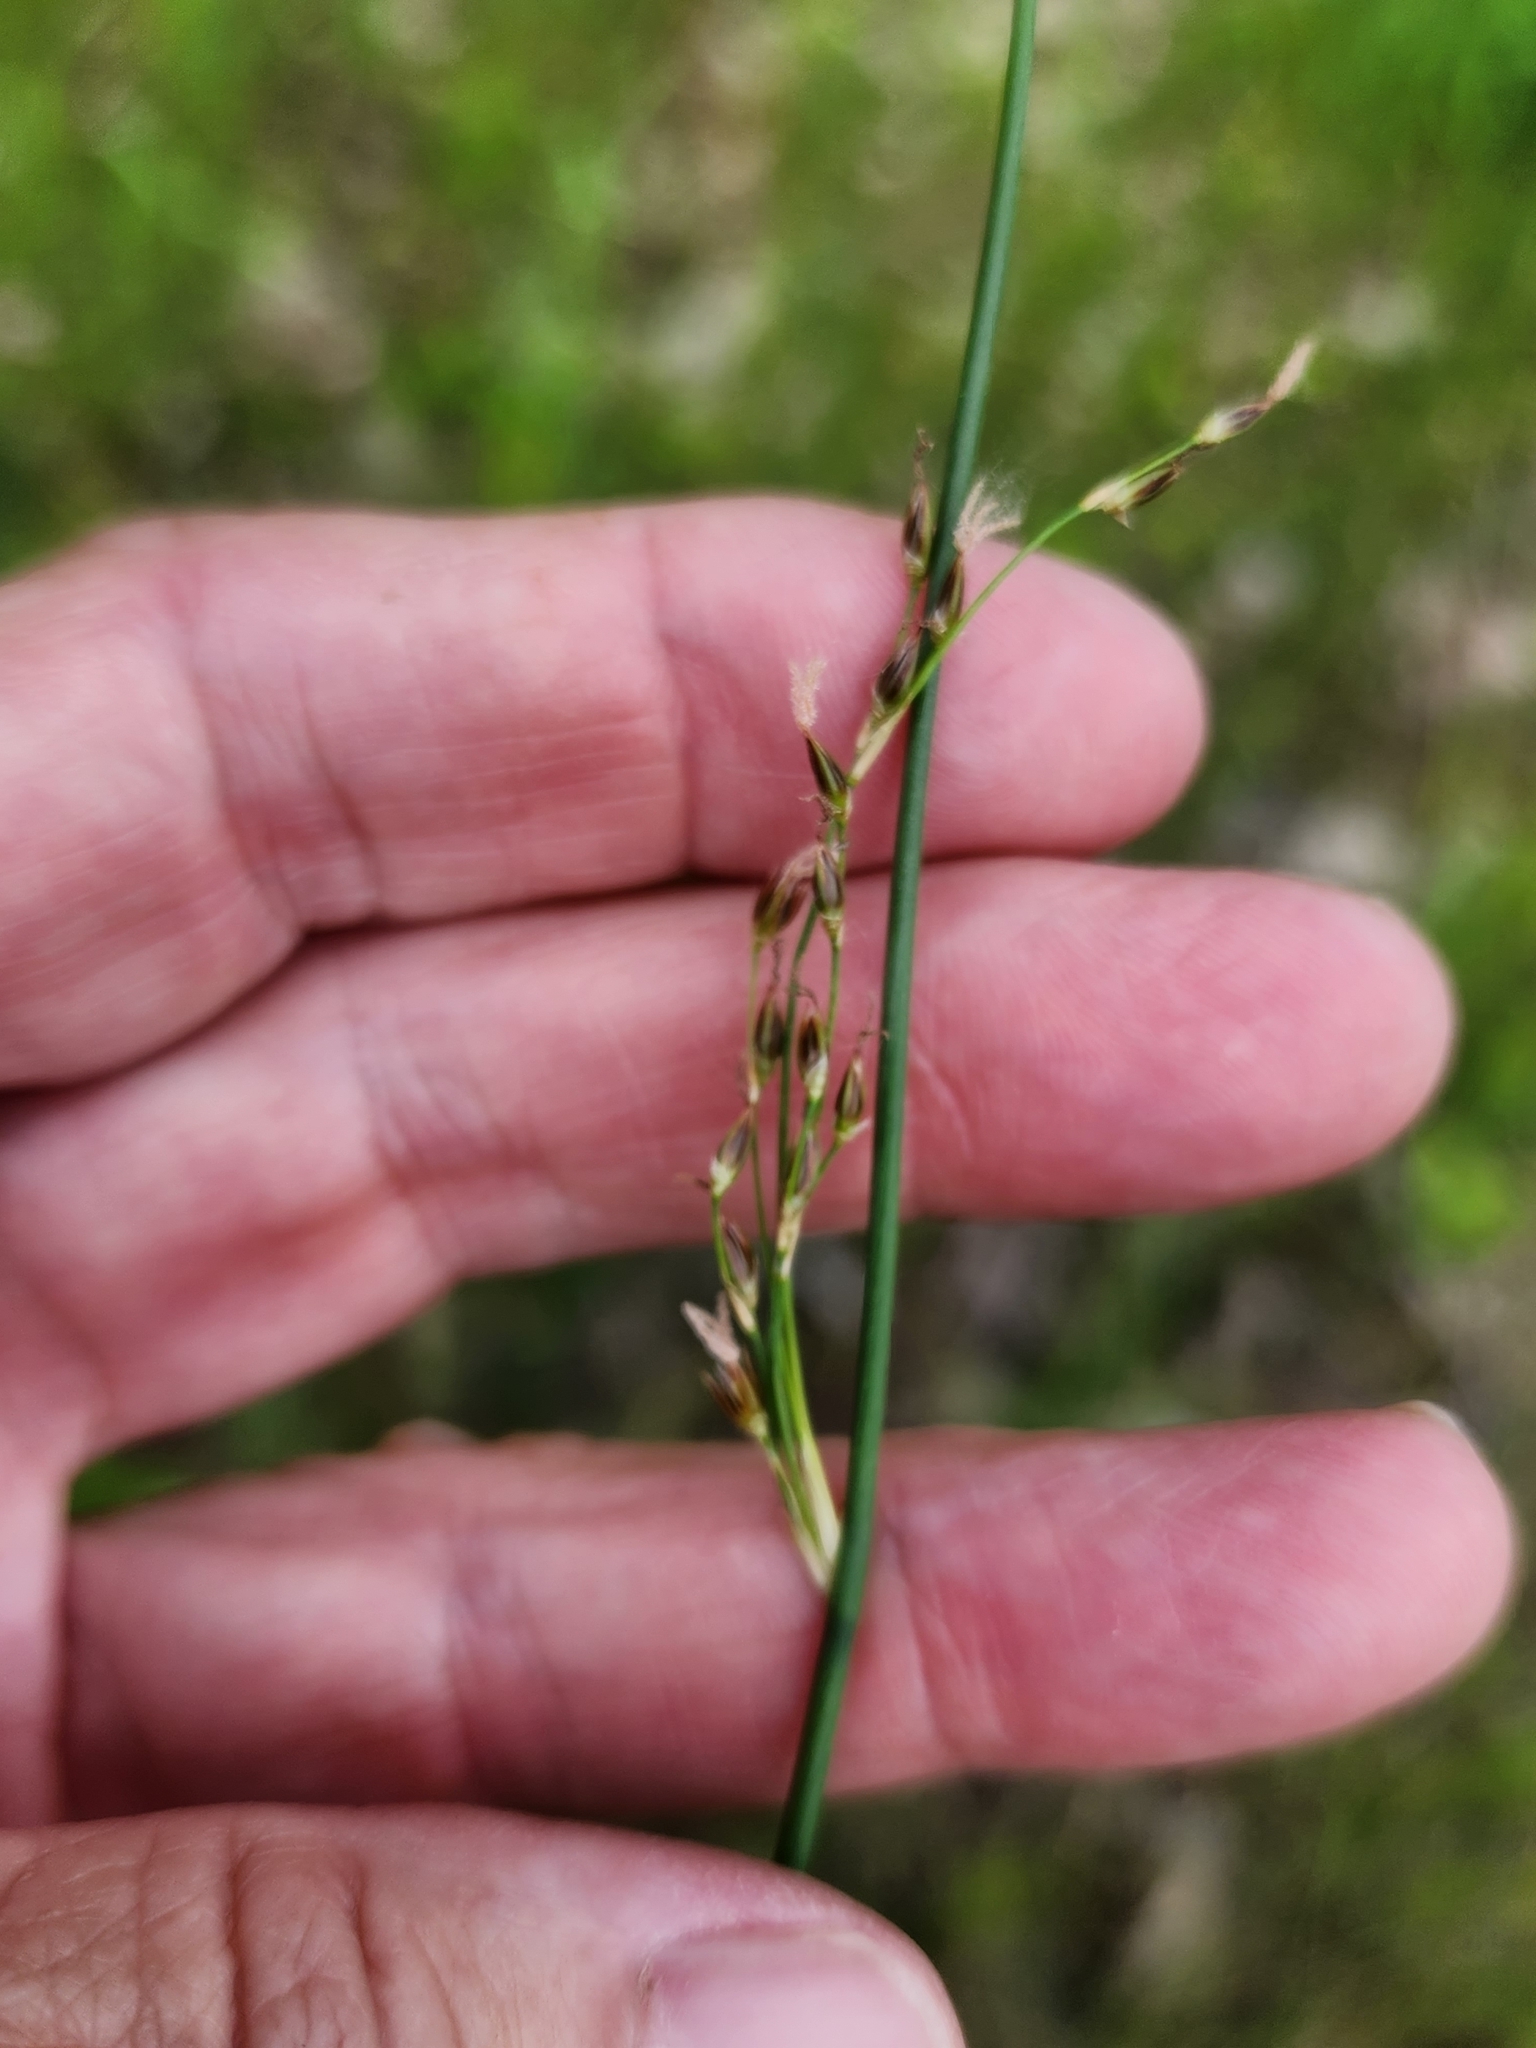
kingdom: Plantae
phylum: Tracheophyta
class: Liliopsida
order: Poales
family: Juncaceae
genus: Juncus
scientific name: Juncus balticus
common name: Baltic rush
